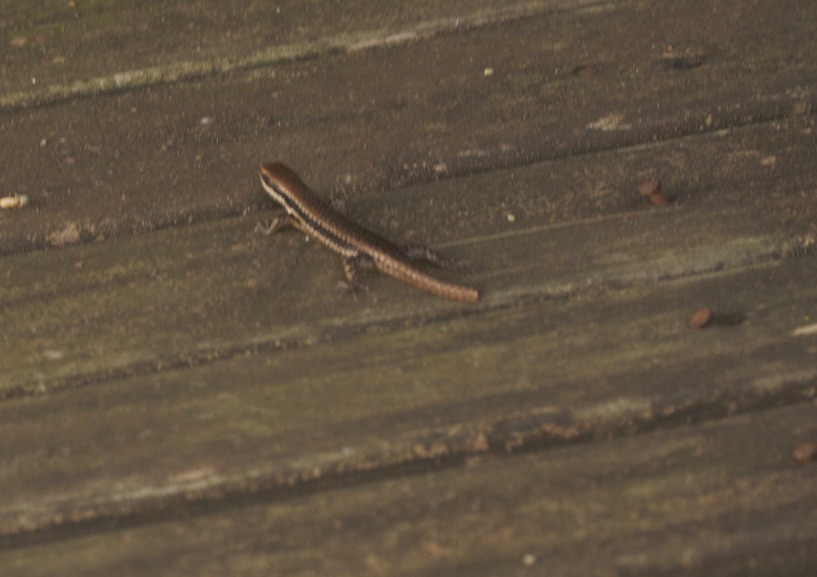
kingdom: Animalia
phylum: Chordata
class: Squamata
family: Scincidae
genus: Notomabuya
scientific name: Notomabuya frenata
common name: Cope's mabuya
